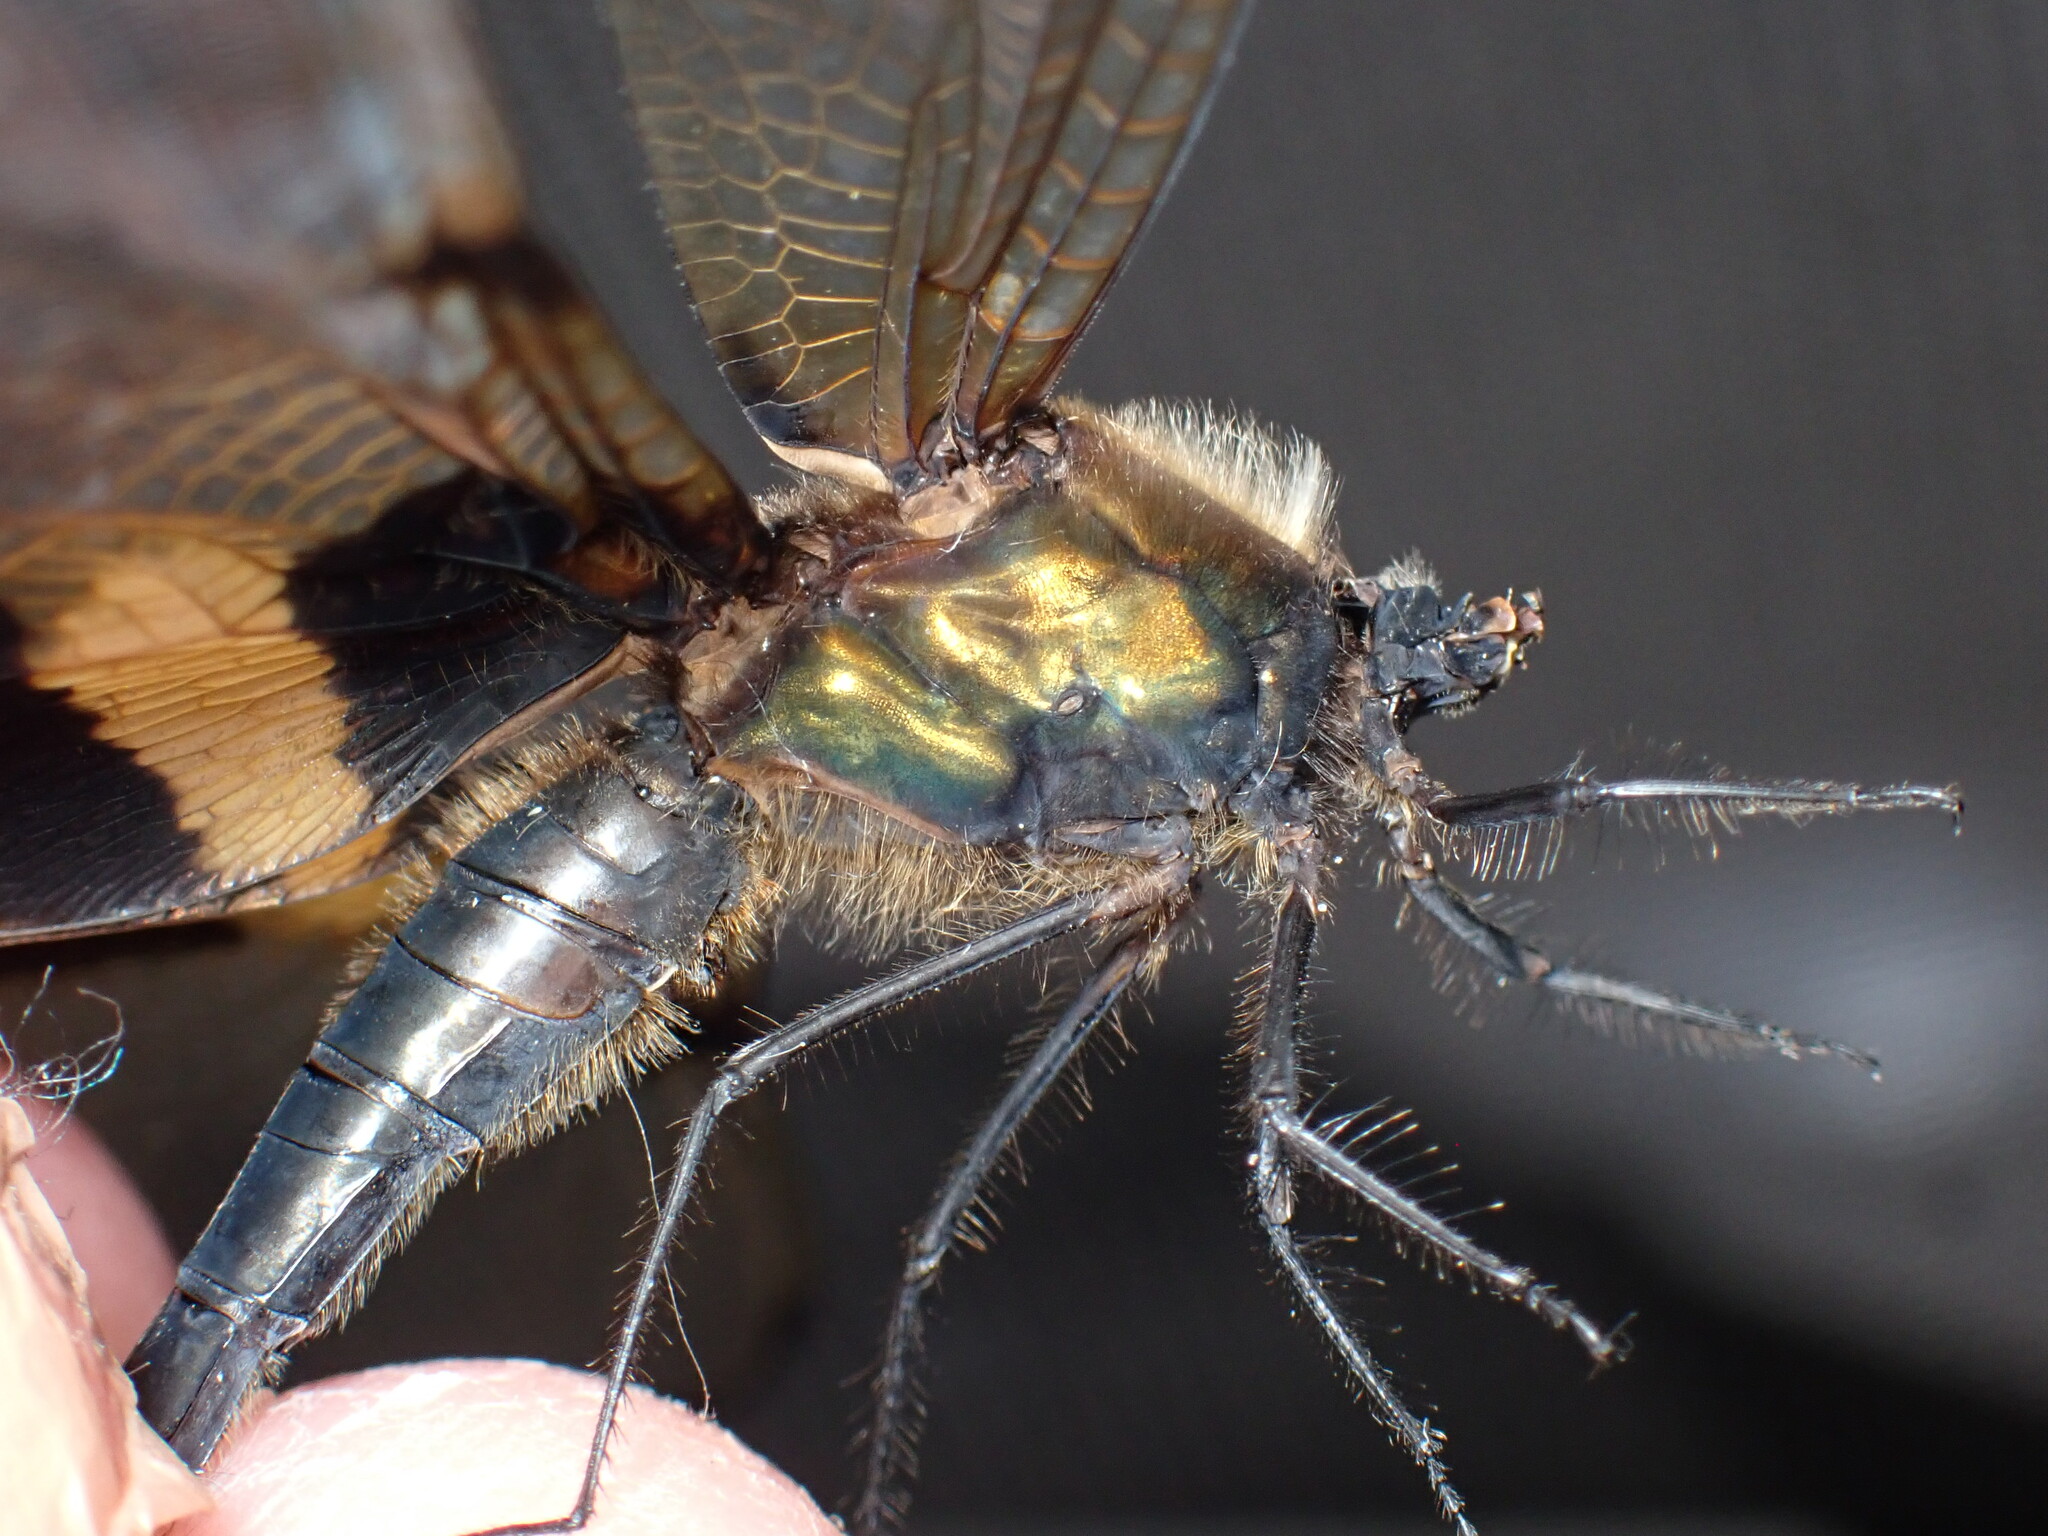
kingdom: Animalia
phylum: Arthropoda
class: Insecta
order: Odonata
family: Libellulidae
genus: Rhyothemis
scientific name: Rhyothemis phyllis
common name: Yellow-barred flutterer
